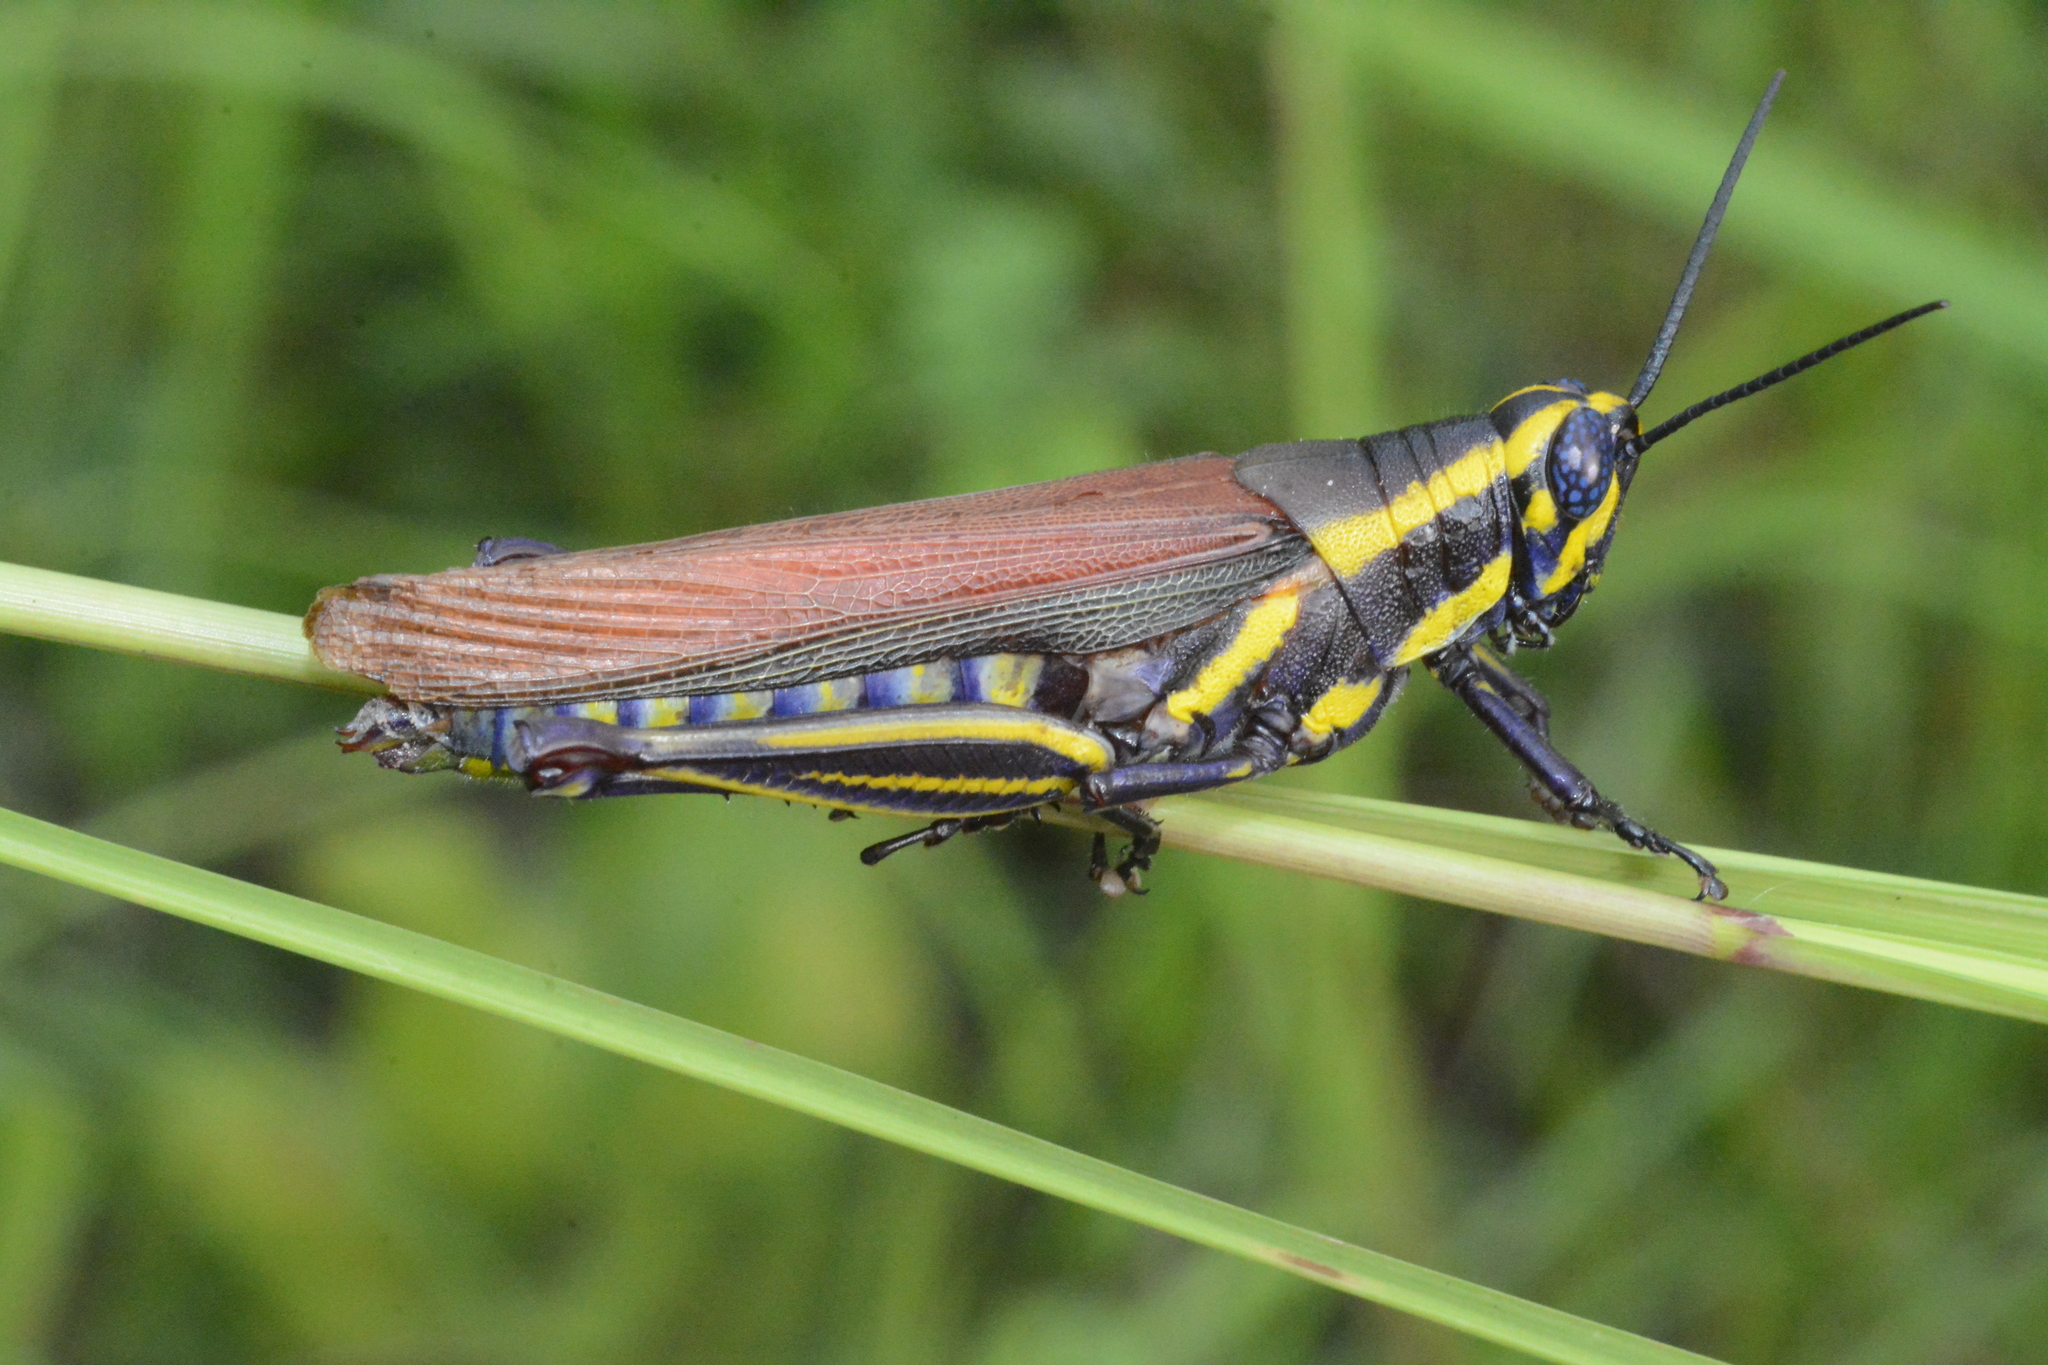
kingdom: Animalia
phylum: Arthropoda
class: Insecta
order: Orthoptera
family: Acrididae
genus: Eupropacris
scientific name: Eupropacris cylindricollis
